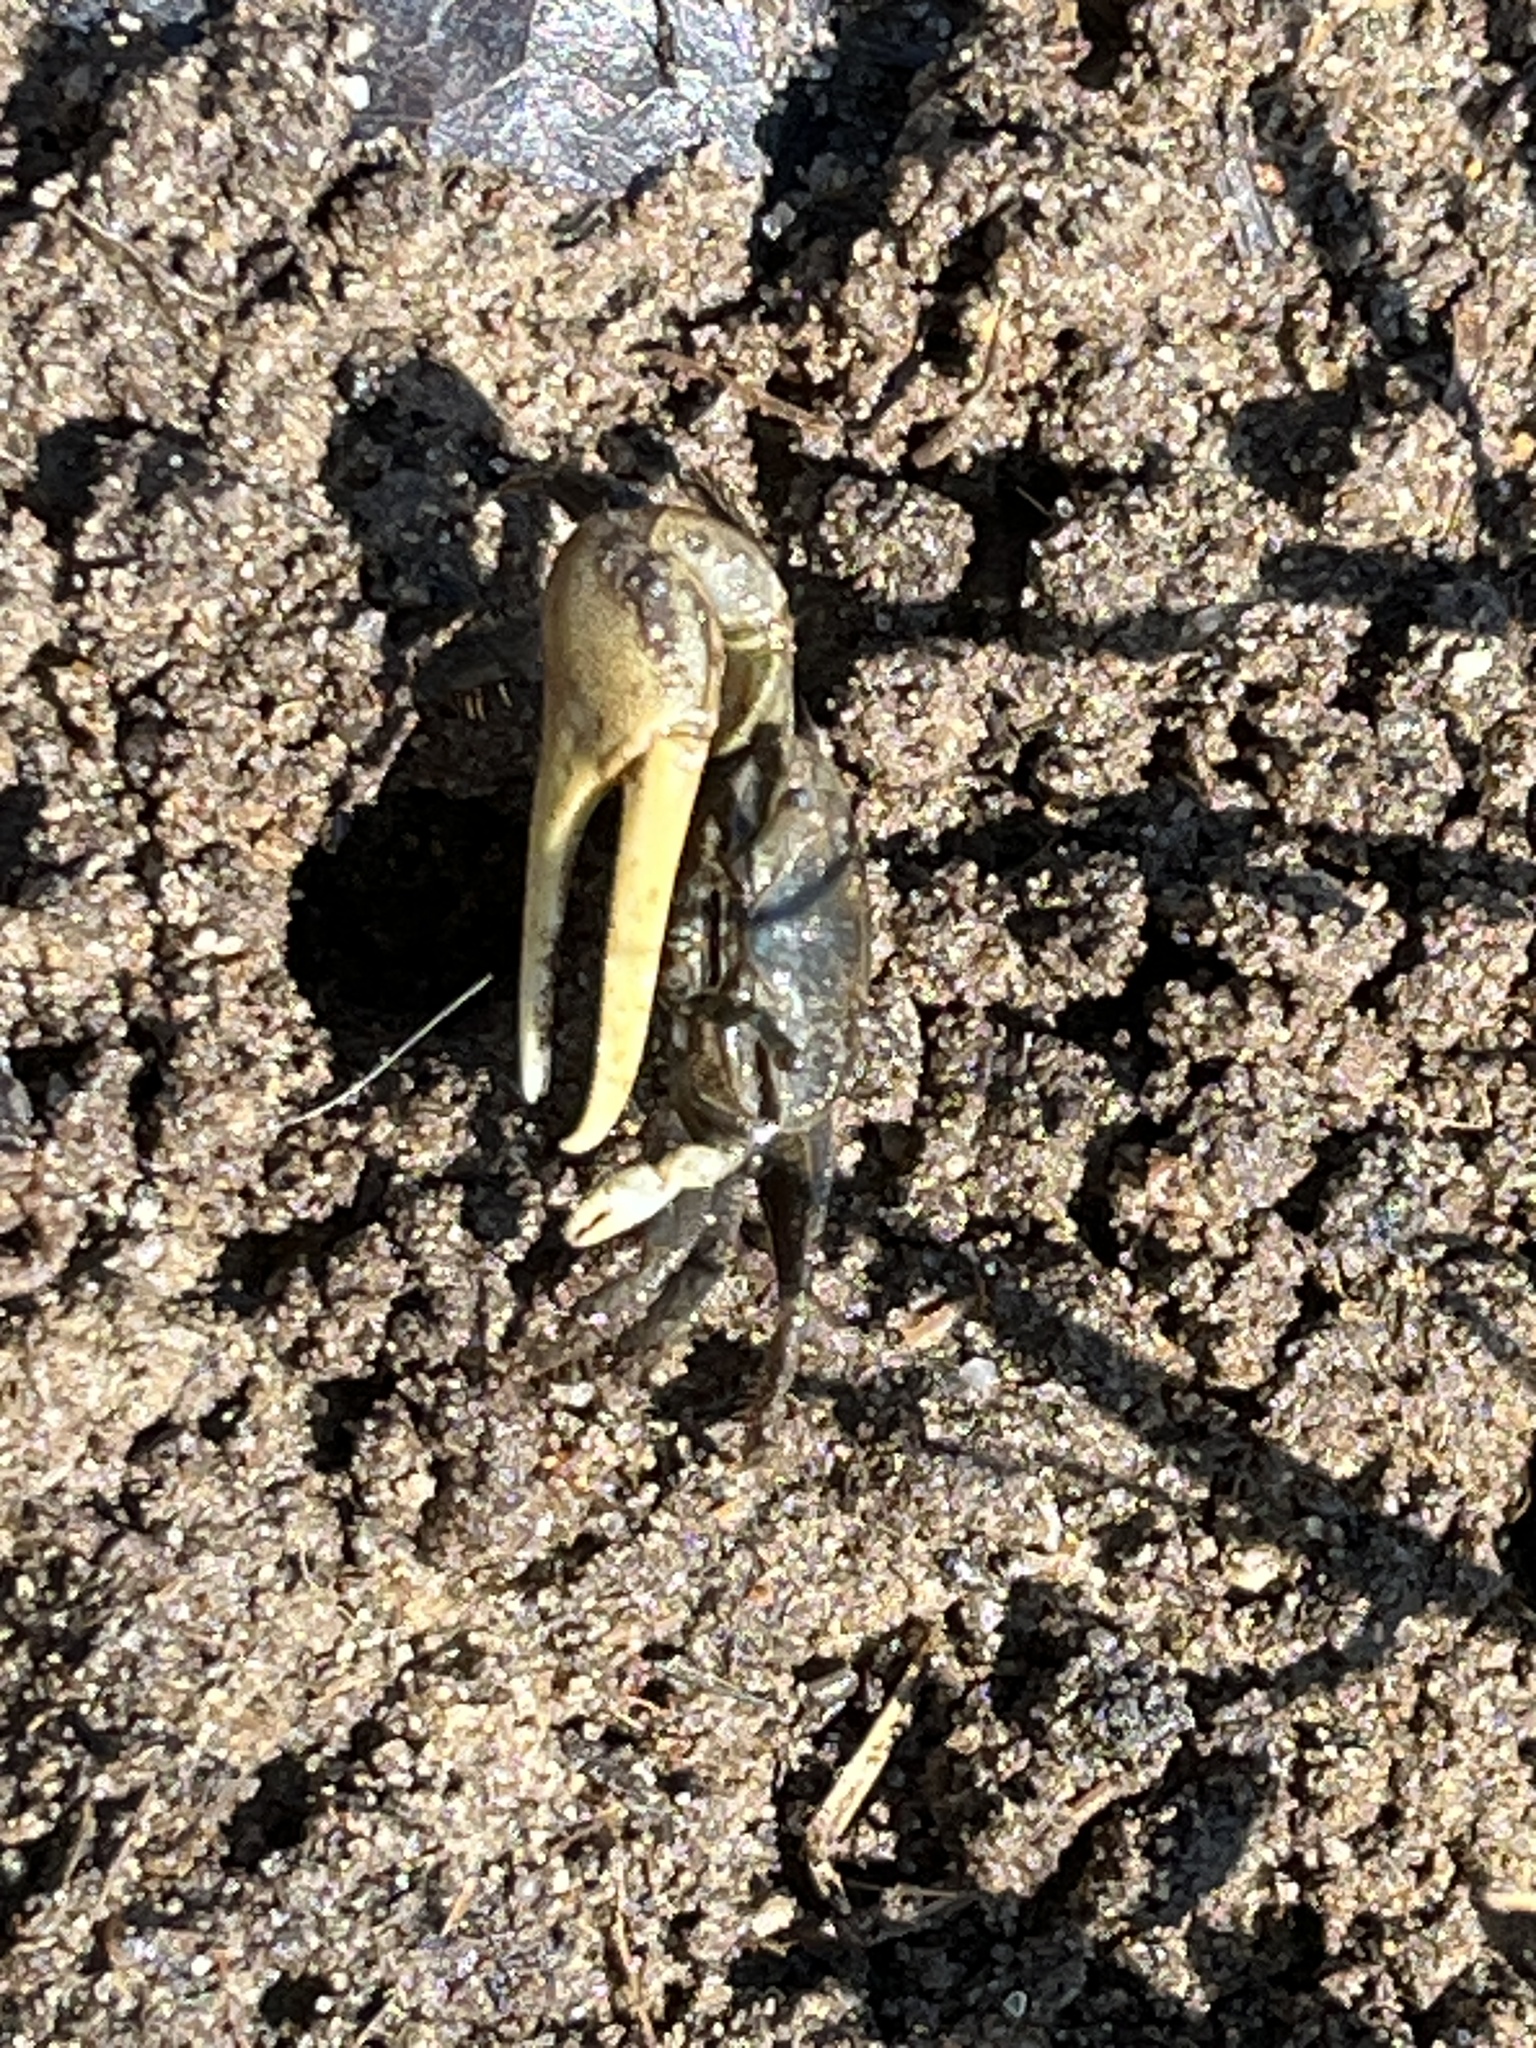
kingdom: Animalia
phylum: Arthropoda
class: Malacostraca
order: Decapoda
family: Ocypodidae
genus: Minuca
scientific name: Minuca pugnax
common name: Mud fiddler crab
